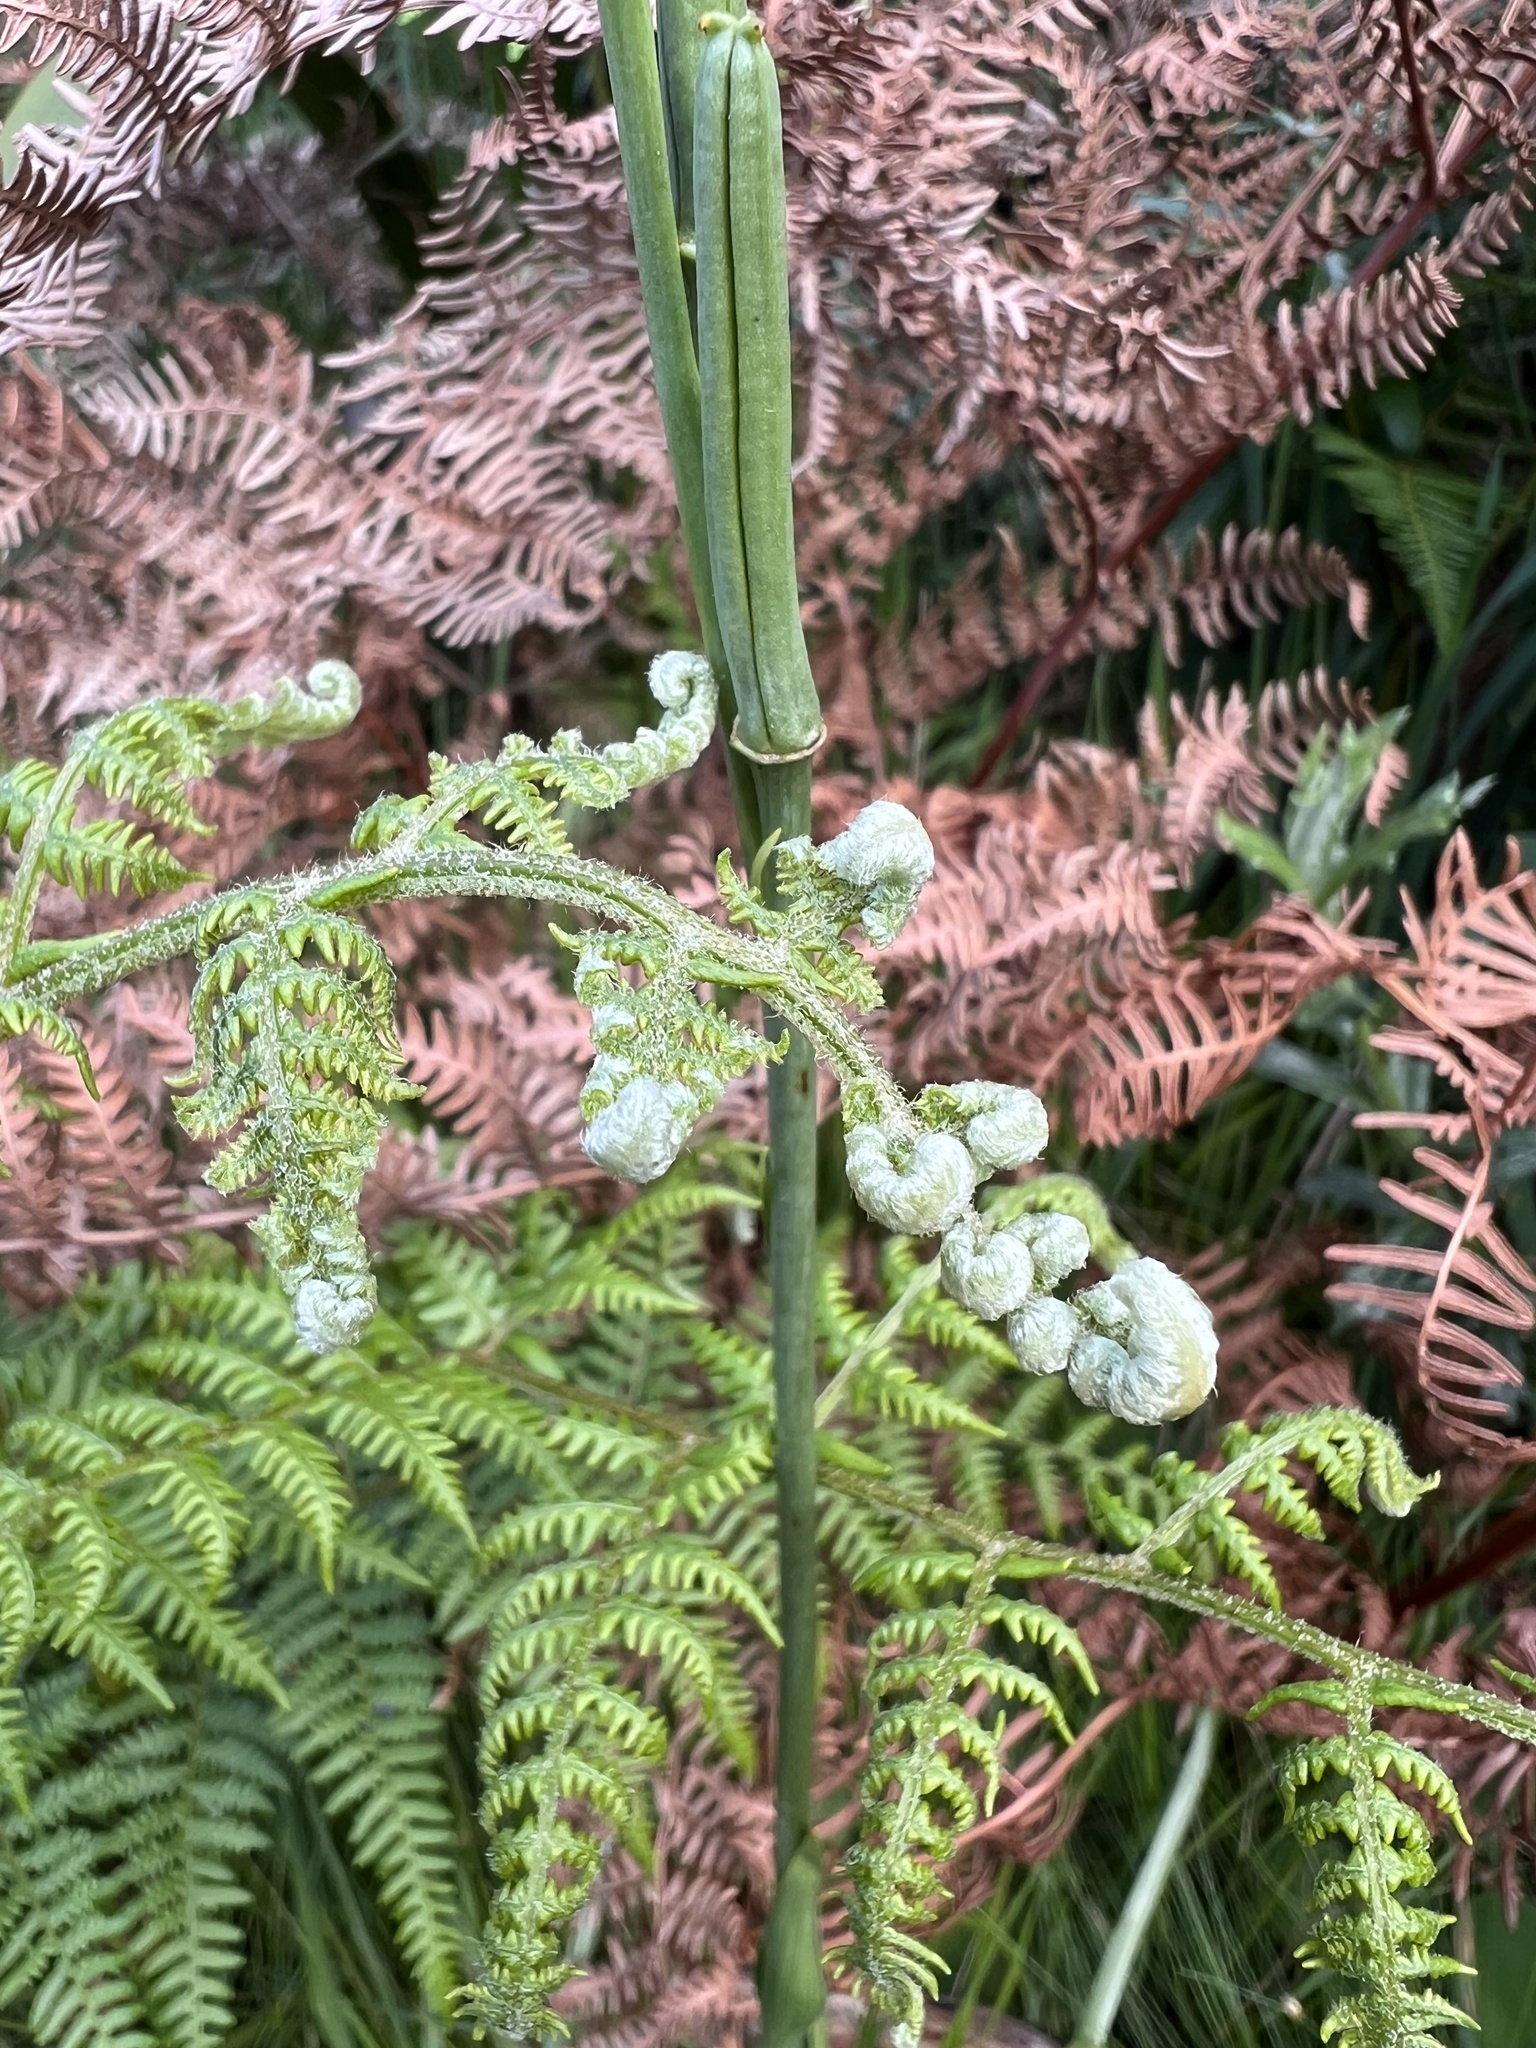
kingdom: Plantae
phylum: Tracheophyta
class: Polypodiopsida
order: Polypodiales
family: Dennstaedtiaceae
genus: Pteridium
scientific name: Pteridium aquilinum
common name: Bracken
